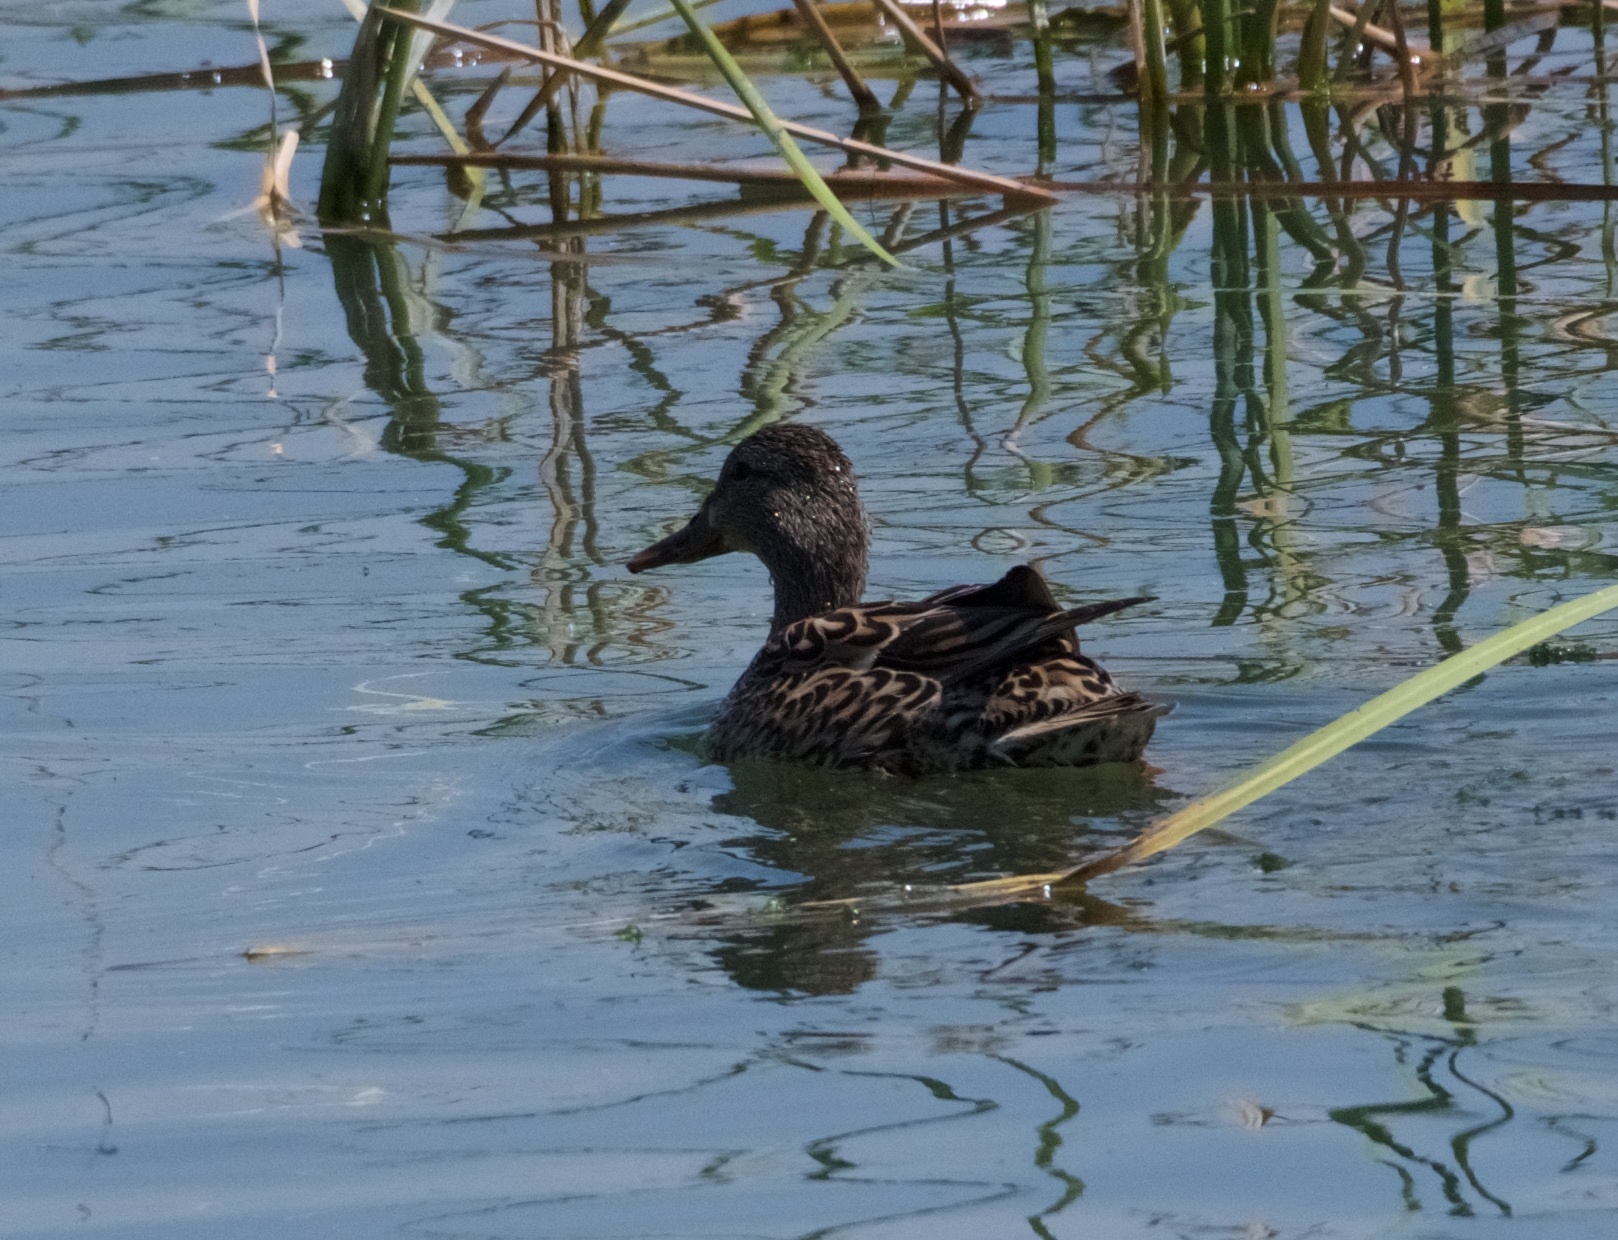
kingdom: Animalia
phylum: Chordata
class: Aves
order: Anseriformes
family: Anatidae
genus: Anas
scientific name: Anas platyrhynchos
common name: Mallard
